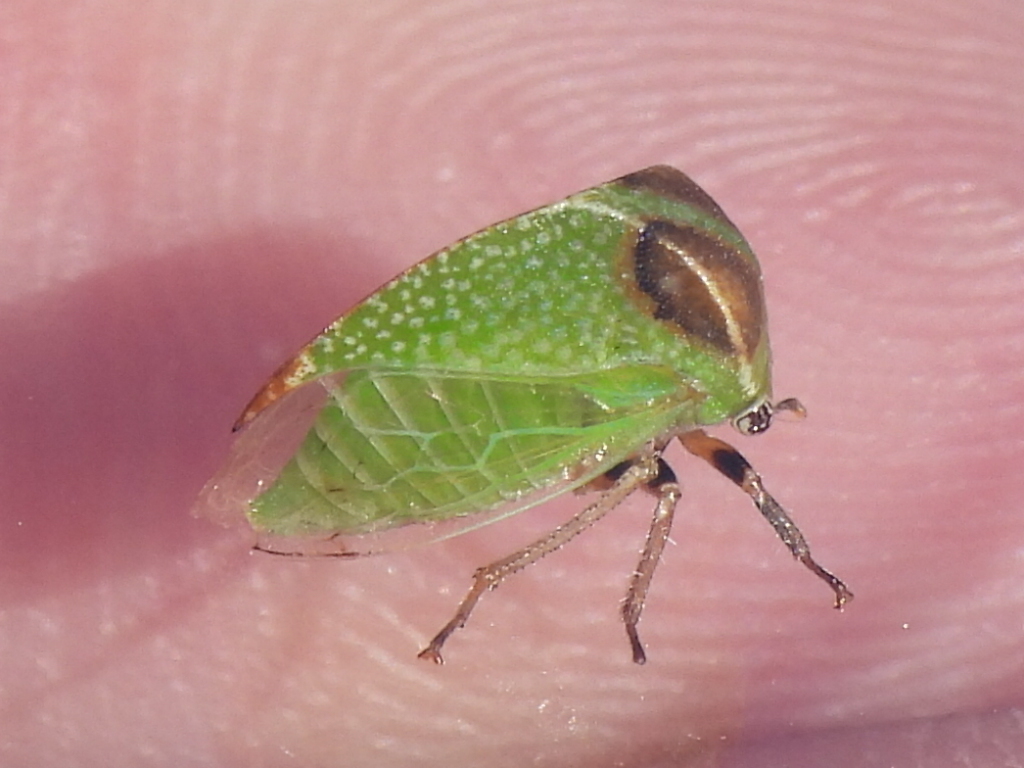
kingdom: Animalia
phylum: Arthropoda
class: Insecta
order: Hemiptera
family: Membracidae
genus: Tortistilus
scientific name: Tortistilus inermis
